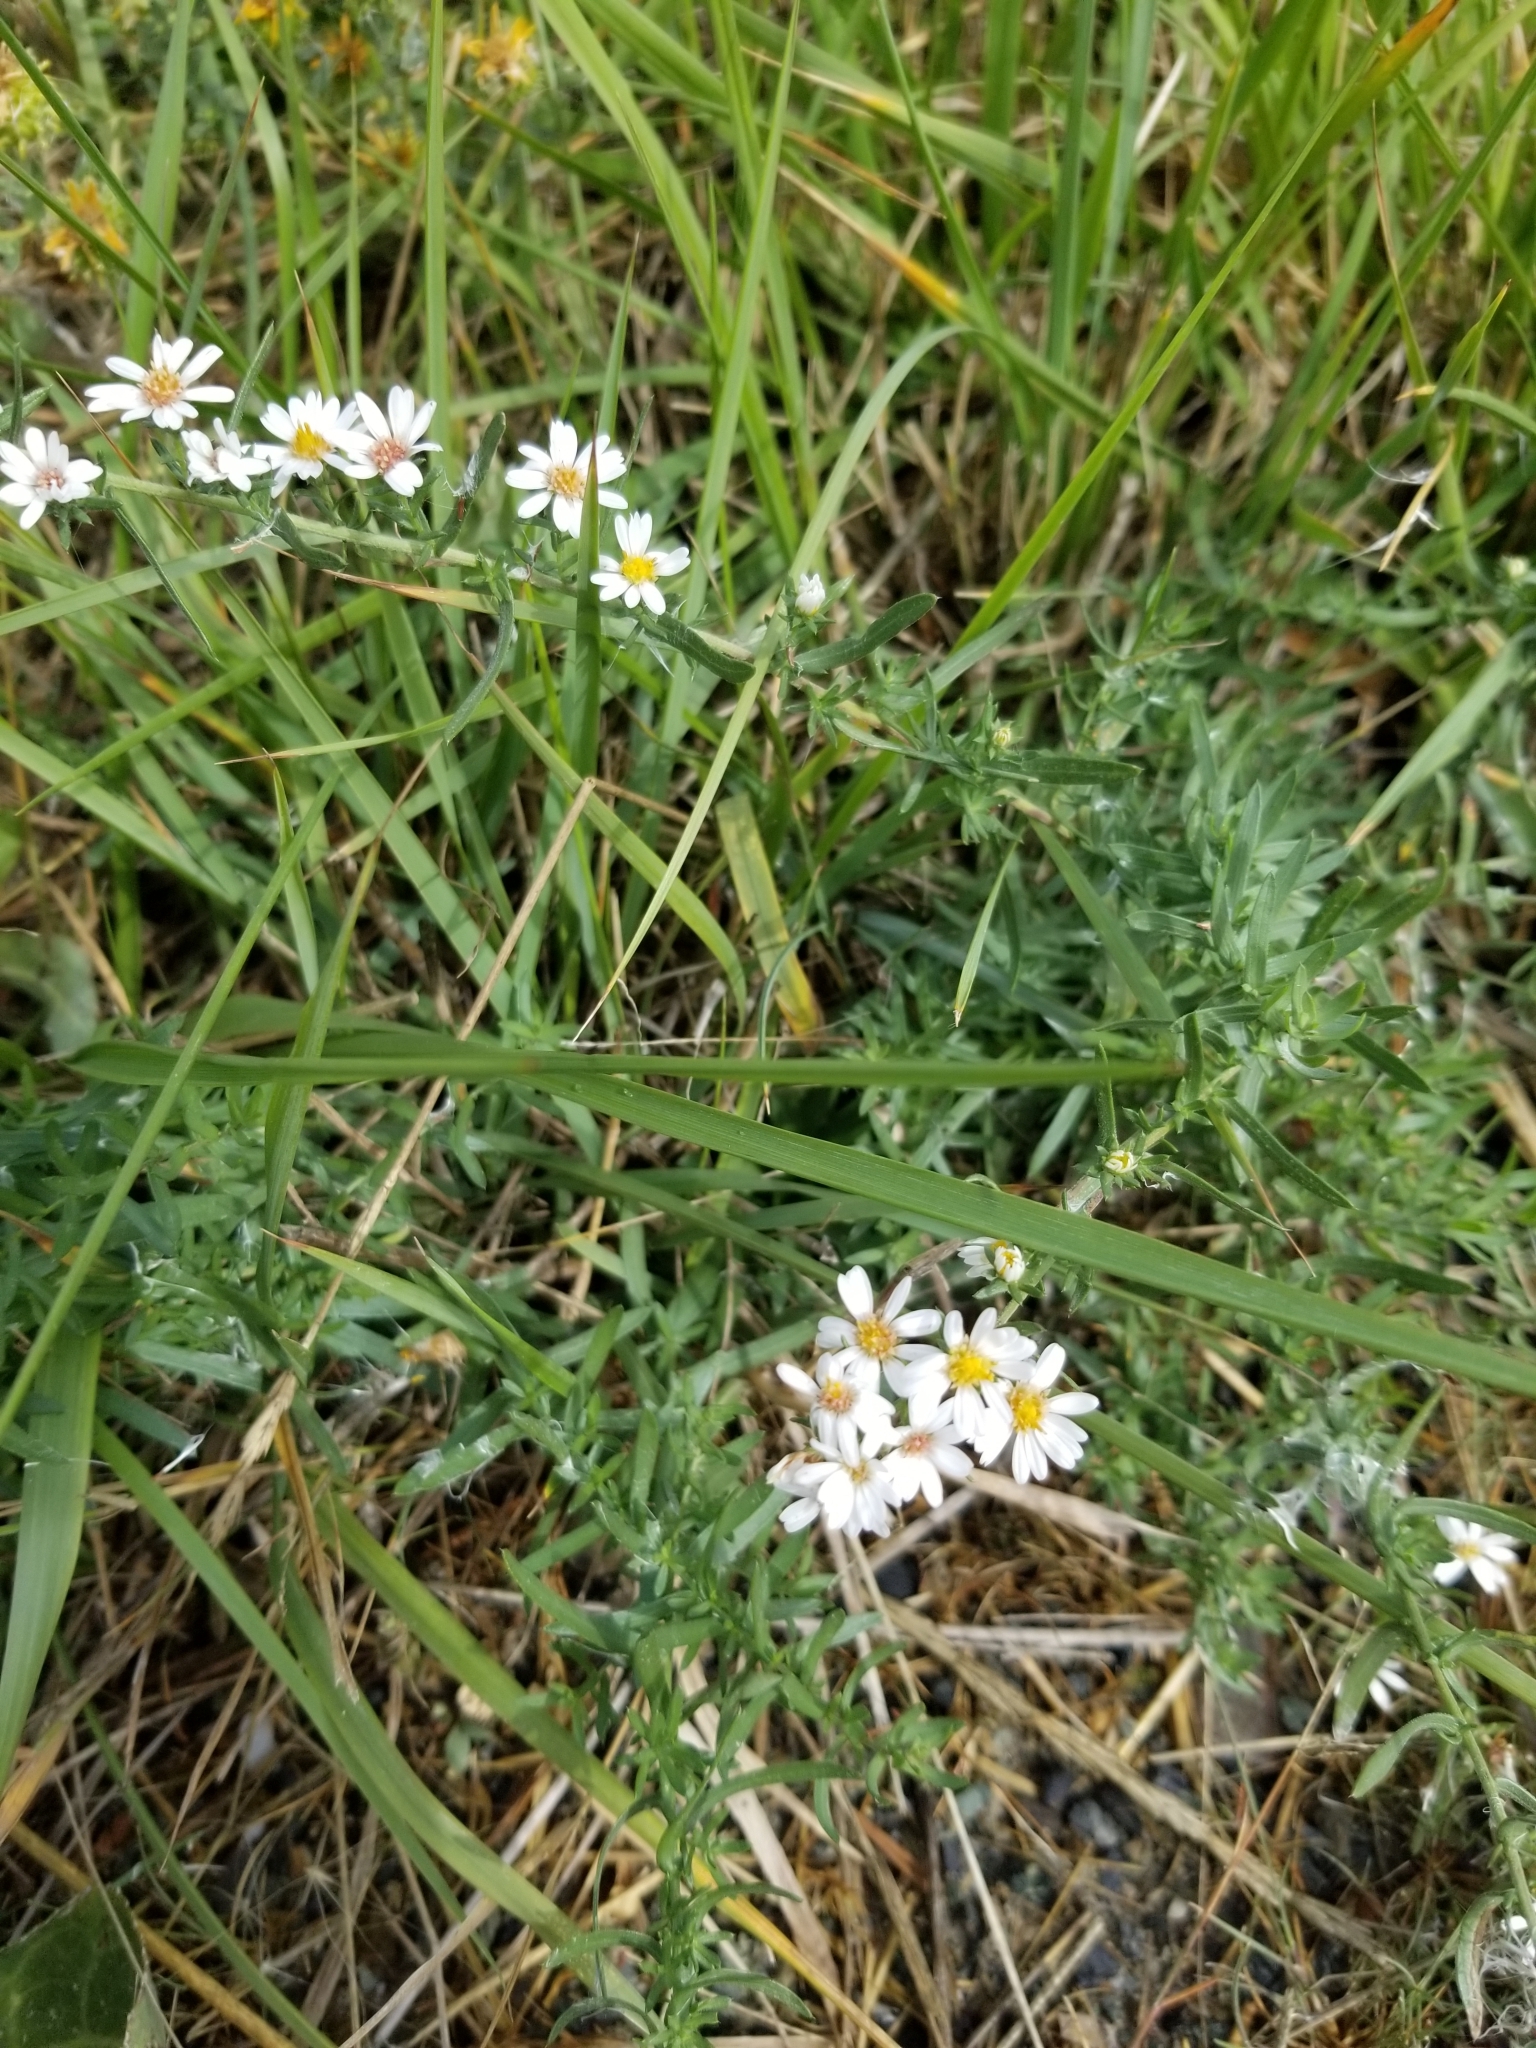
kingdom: Plantae
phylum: Tracheophyta
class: Magnoliopsida
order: Asterales
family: Asteraceae
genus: Symphyotrichum
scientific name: Symphyotrichum ericoides
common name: Heath aster
